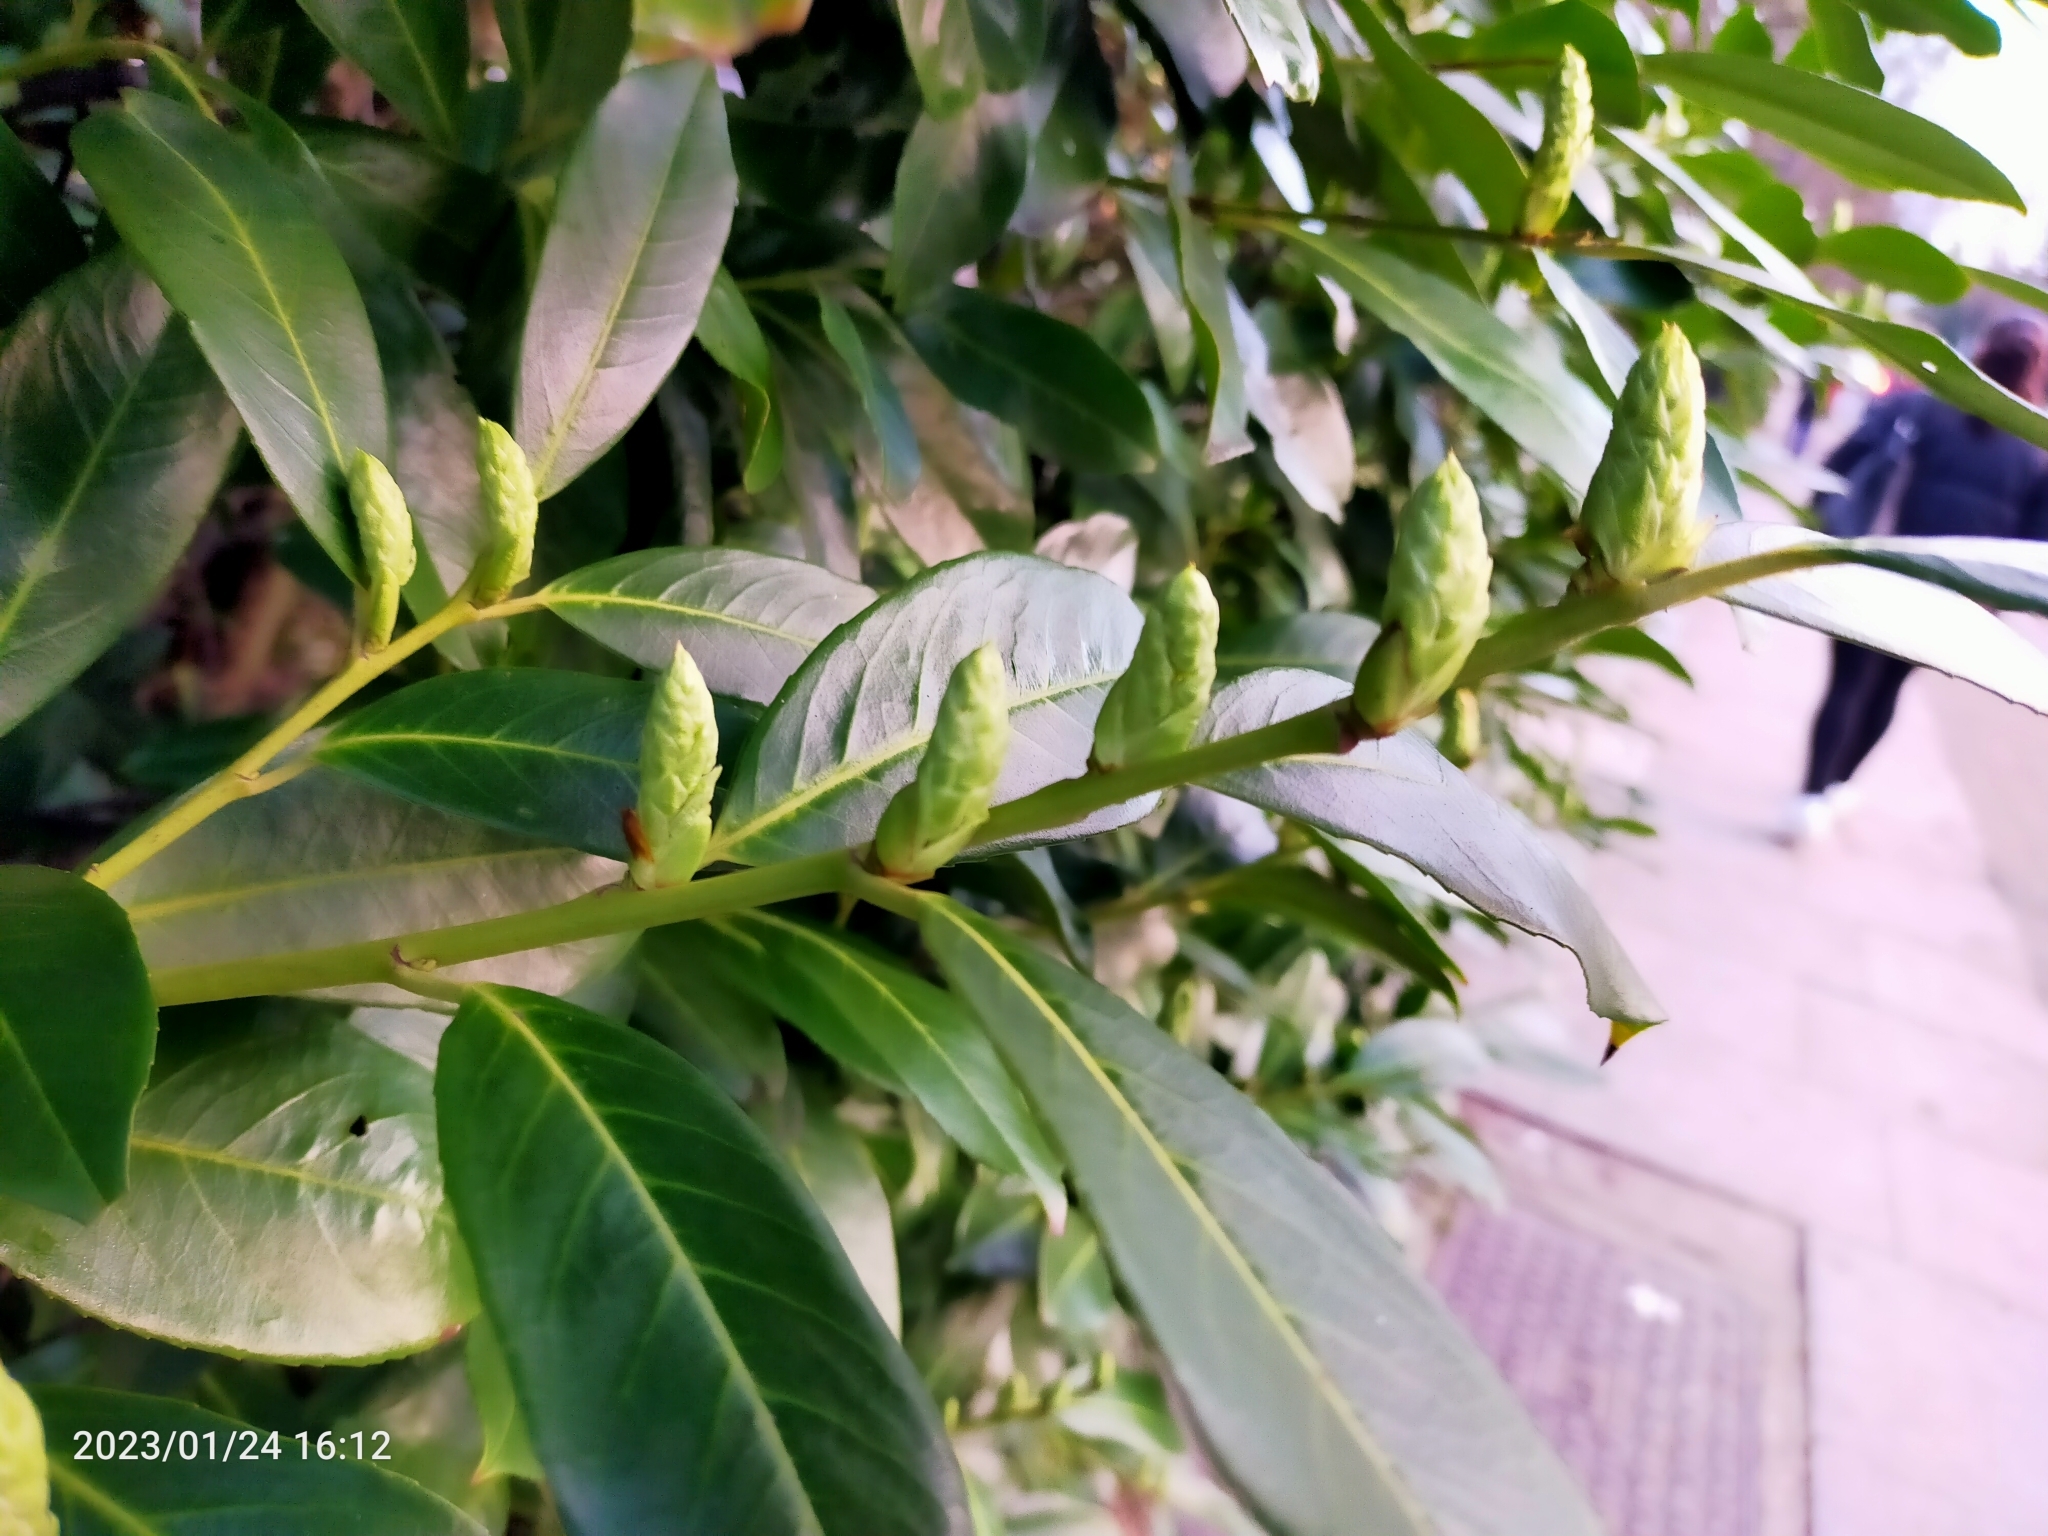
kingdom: Plantae
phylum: Tracheophyta
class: Magnoliopsida
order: Rosales
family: Rosaceae
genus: Prunus
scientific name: Prunus laurocerasus
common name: Cherry laurel
